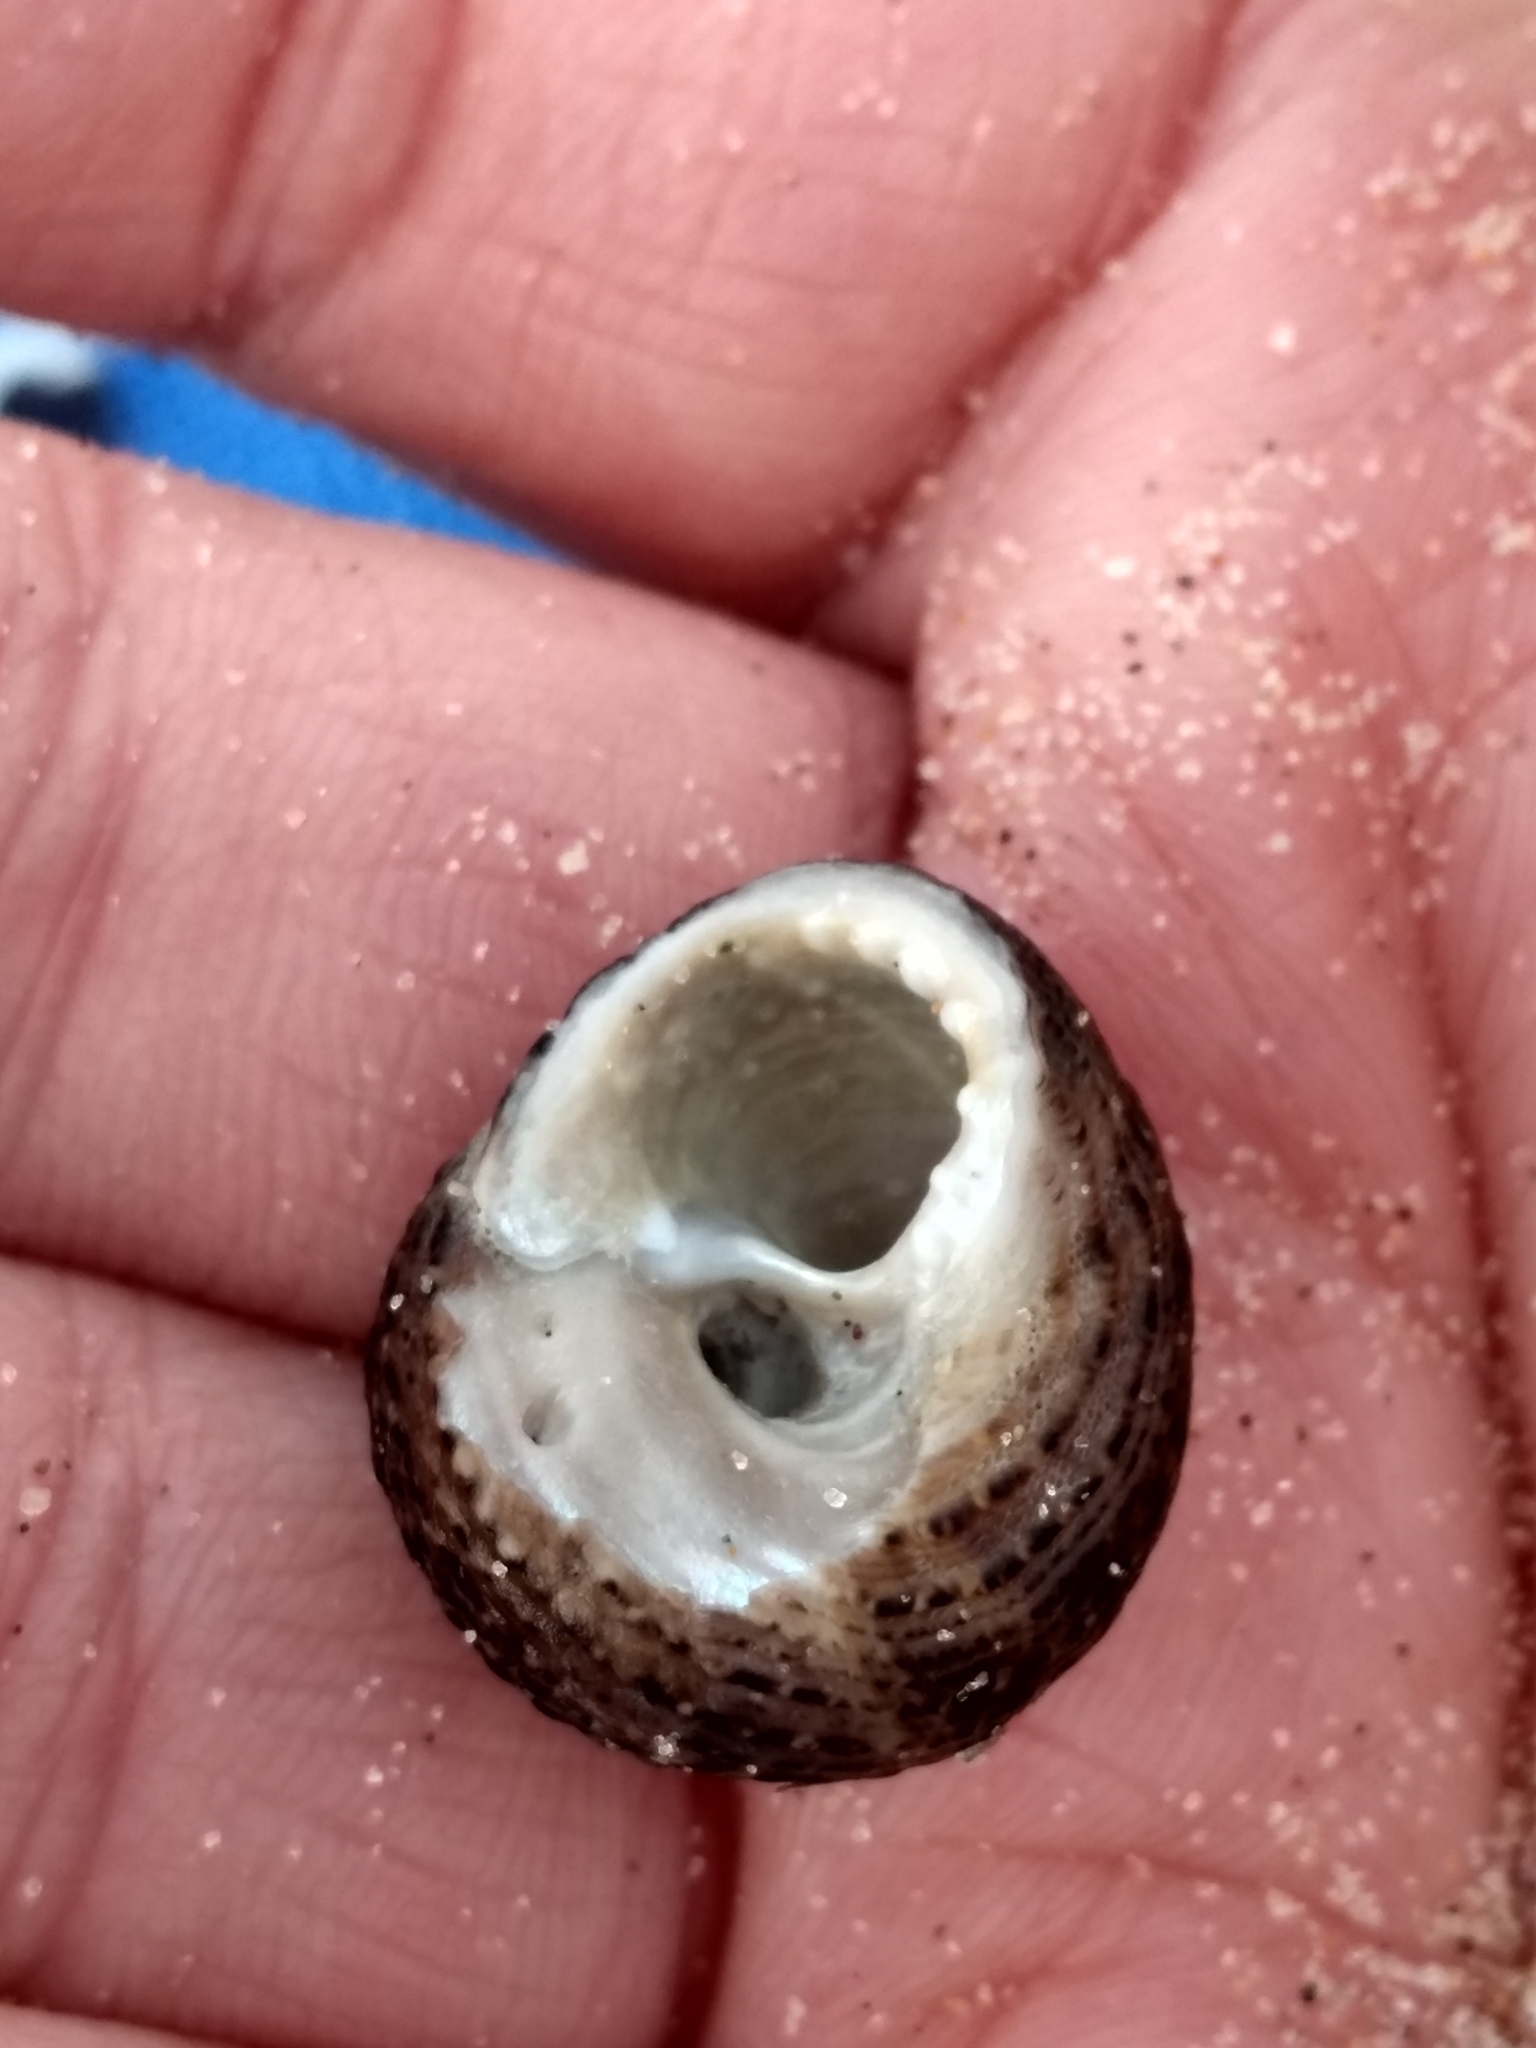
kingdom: Animalia
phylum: Mollusca
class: Gastropoda
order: Trochida
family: Tegulidae
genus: Tegula
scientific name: Tegula eiseni
